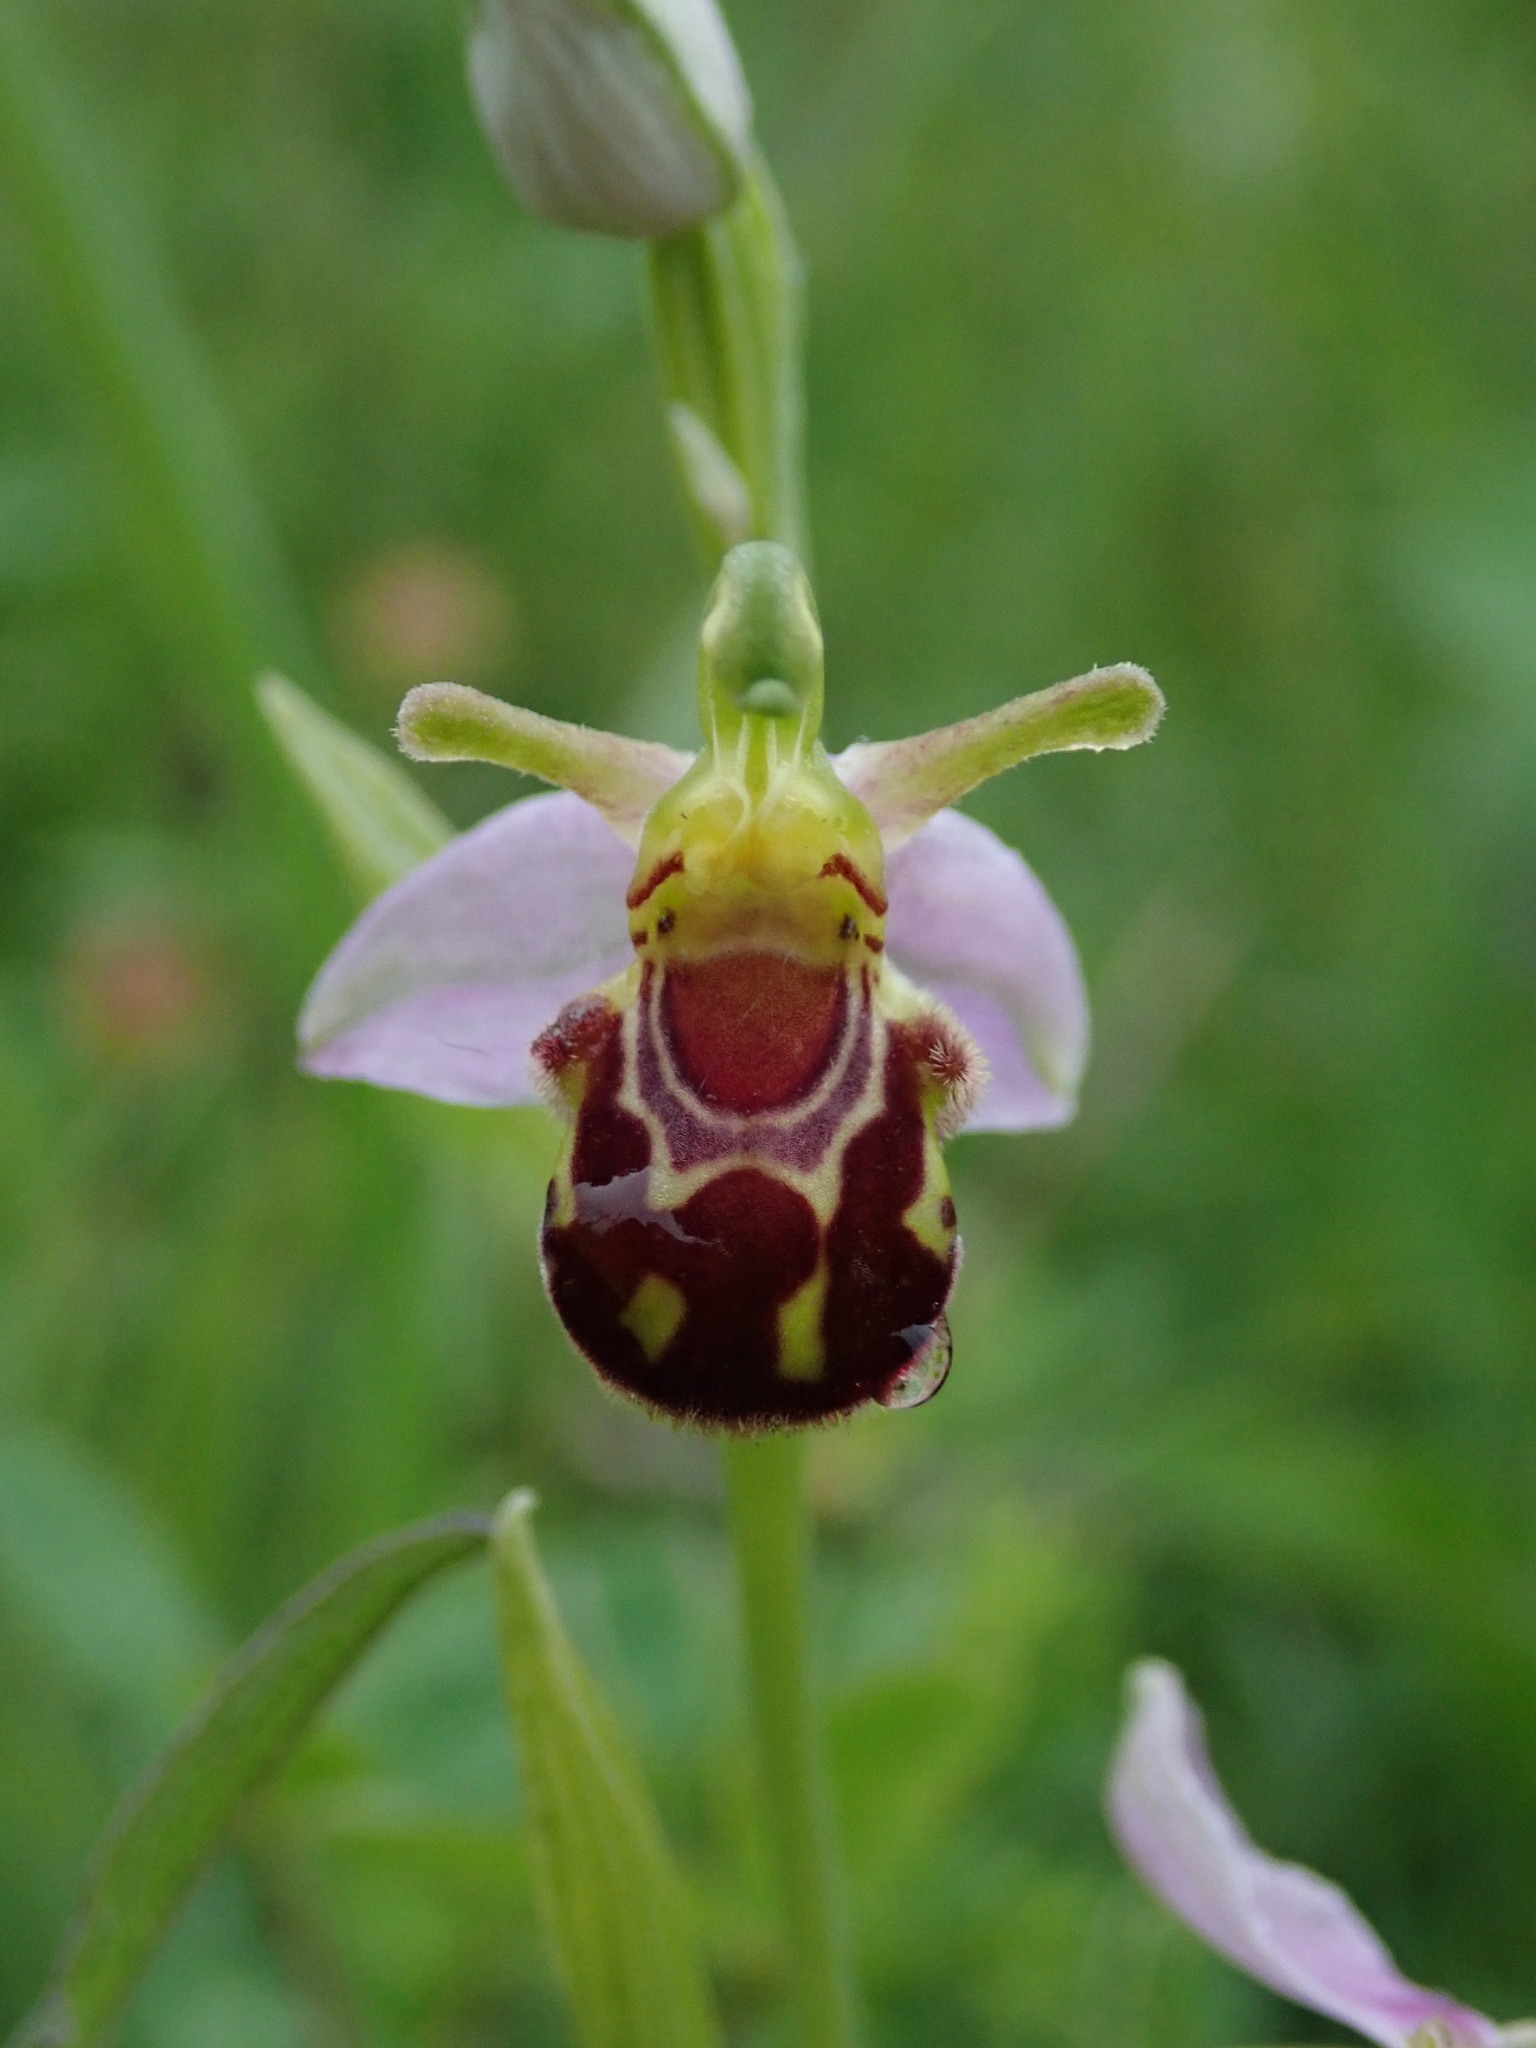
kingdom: Plantae
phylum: Tracheophyta
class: Liliopsida
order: Asparagales
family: Orchidaceae
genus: Ophrys
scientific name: Ophrys apifera
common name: Bee orchid
